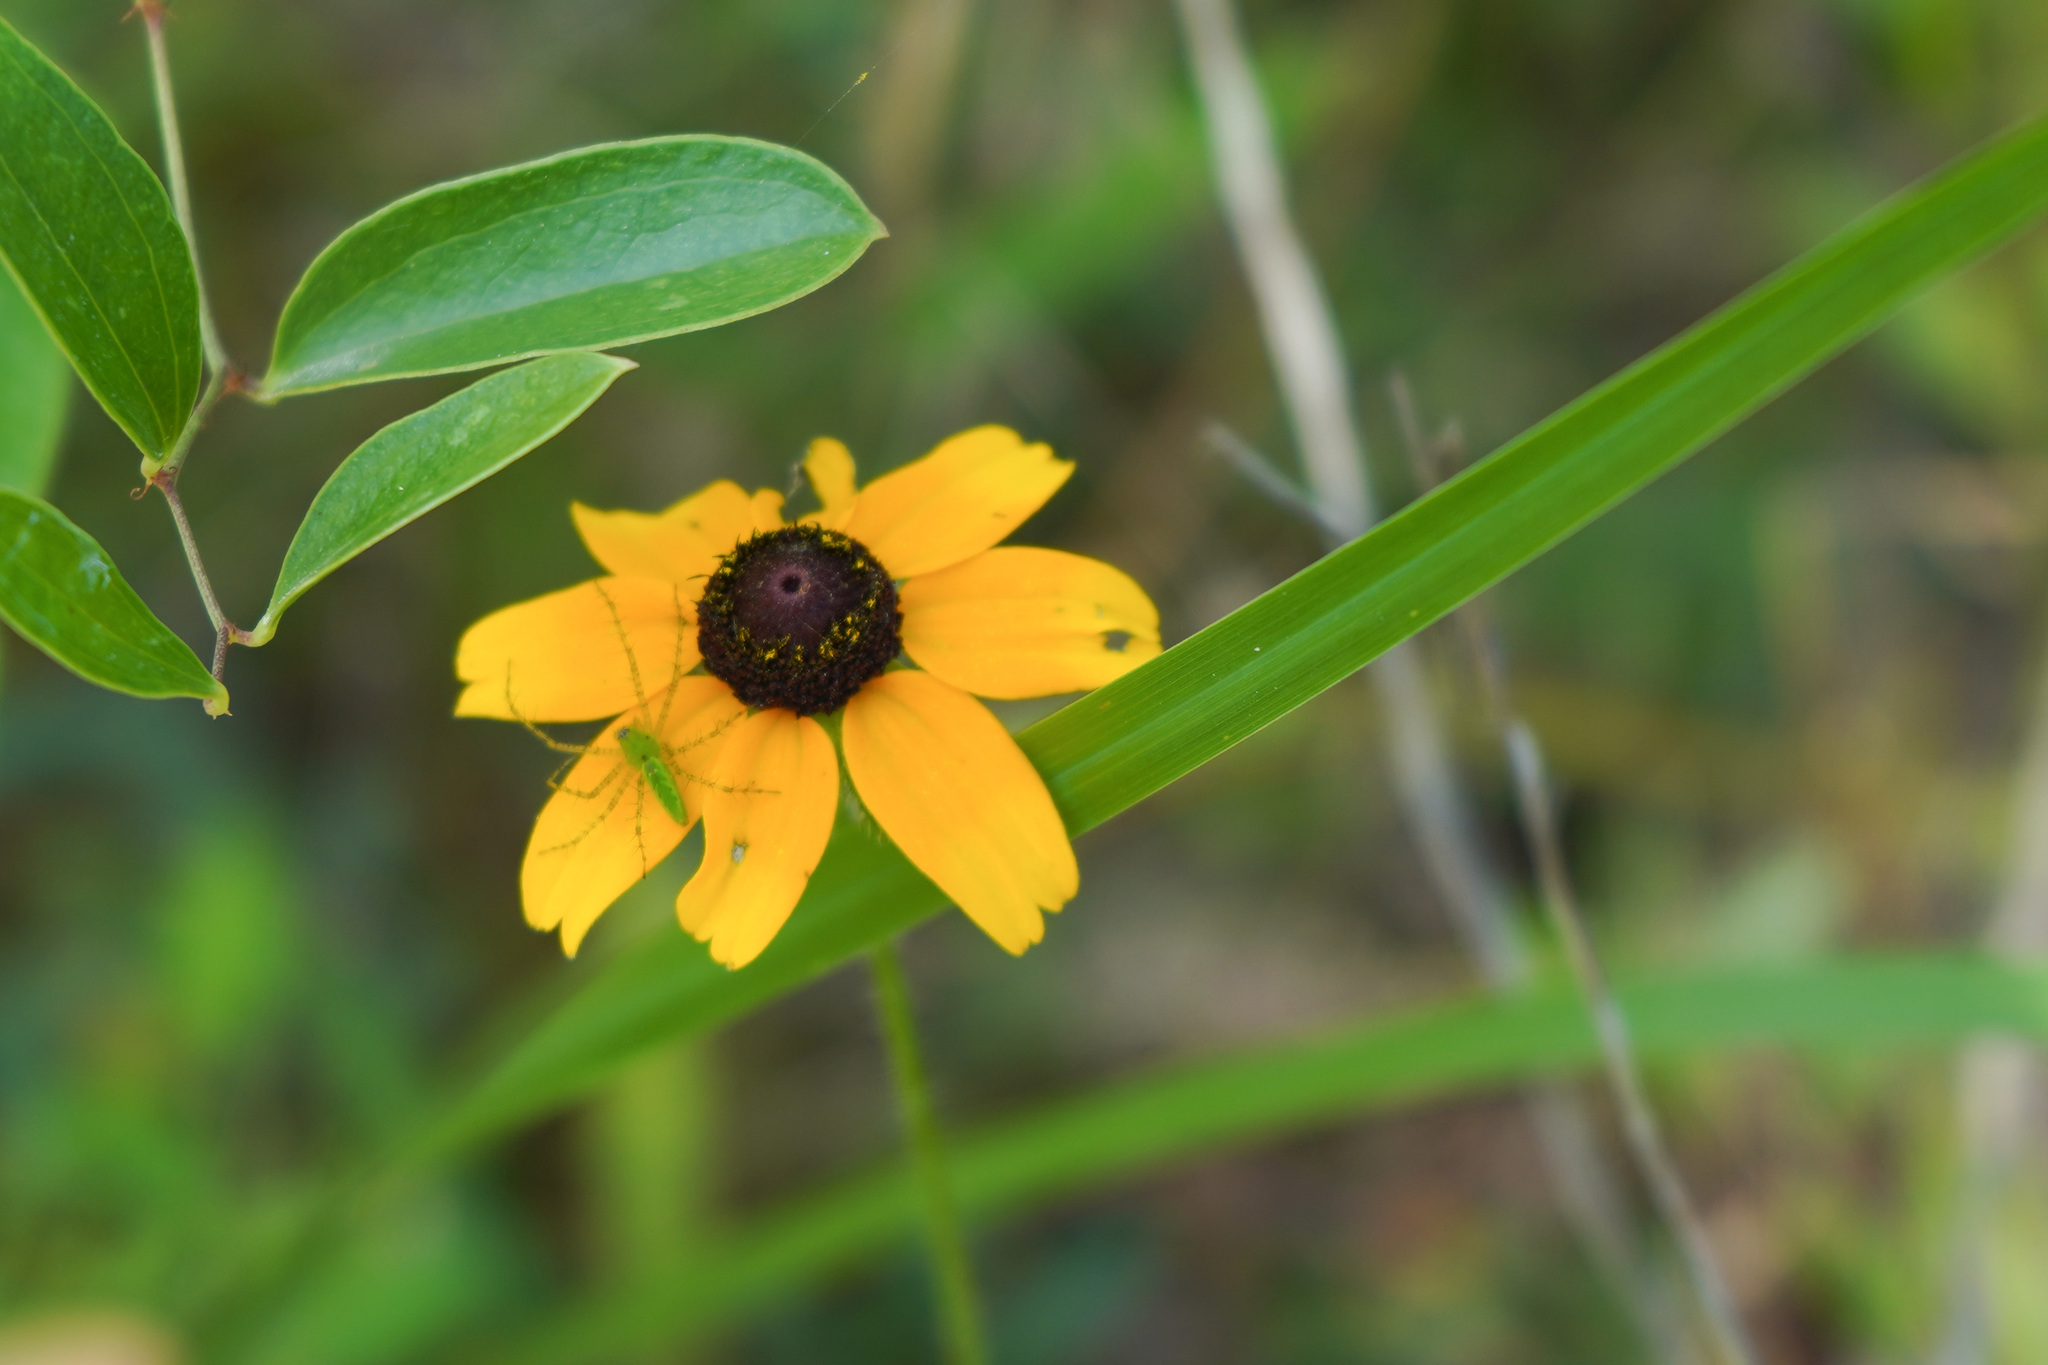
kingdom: Animalia
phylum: Arthropoda
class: Arachnida
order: Araneae
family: Oxyopidae
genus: Peucetia
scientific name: Peucetia viridans
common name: Lynx spiders
